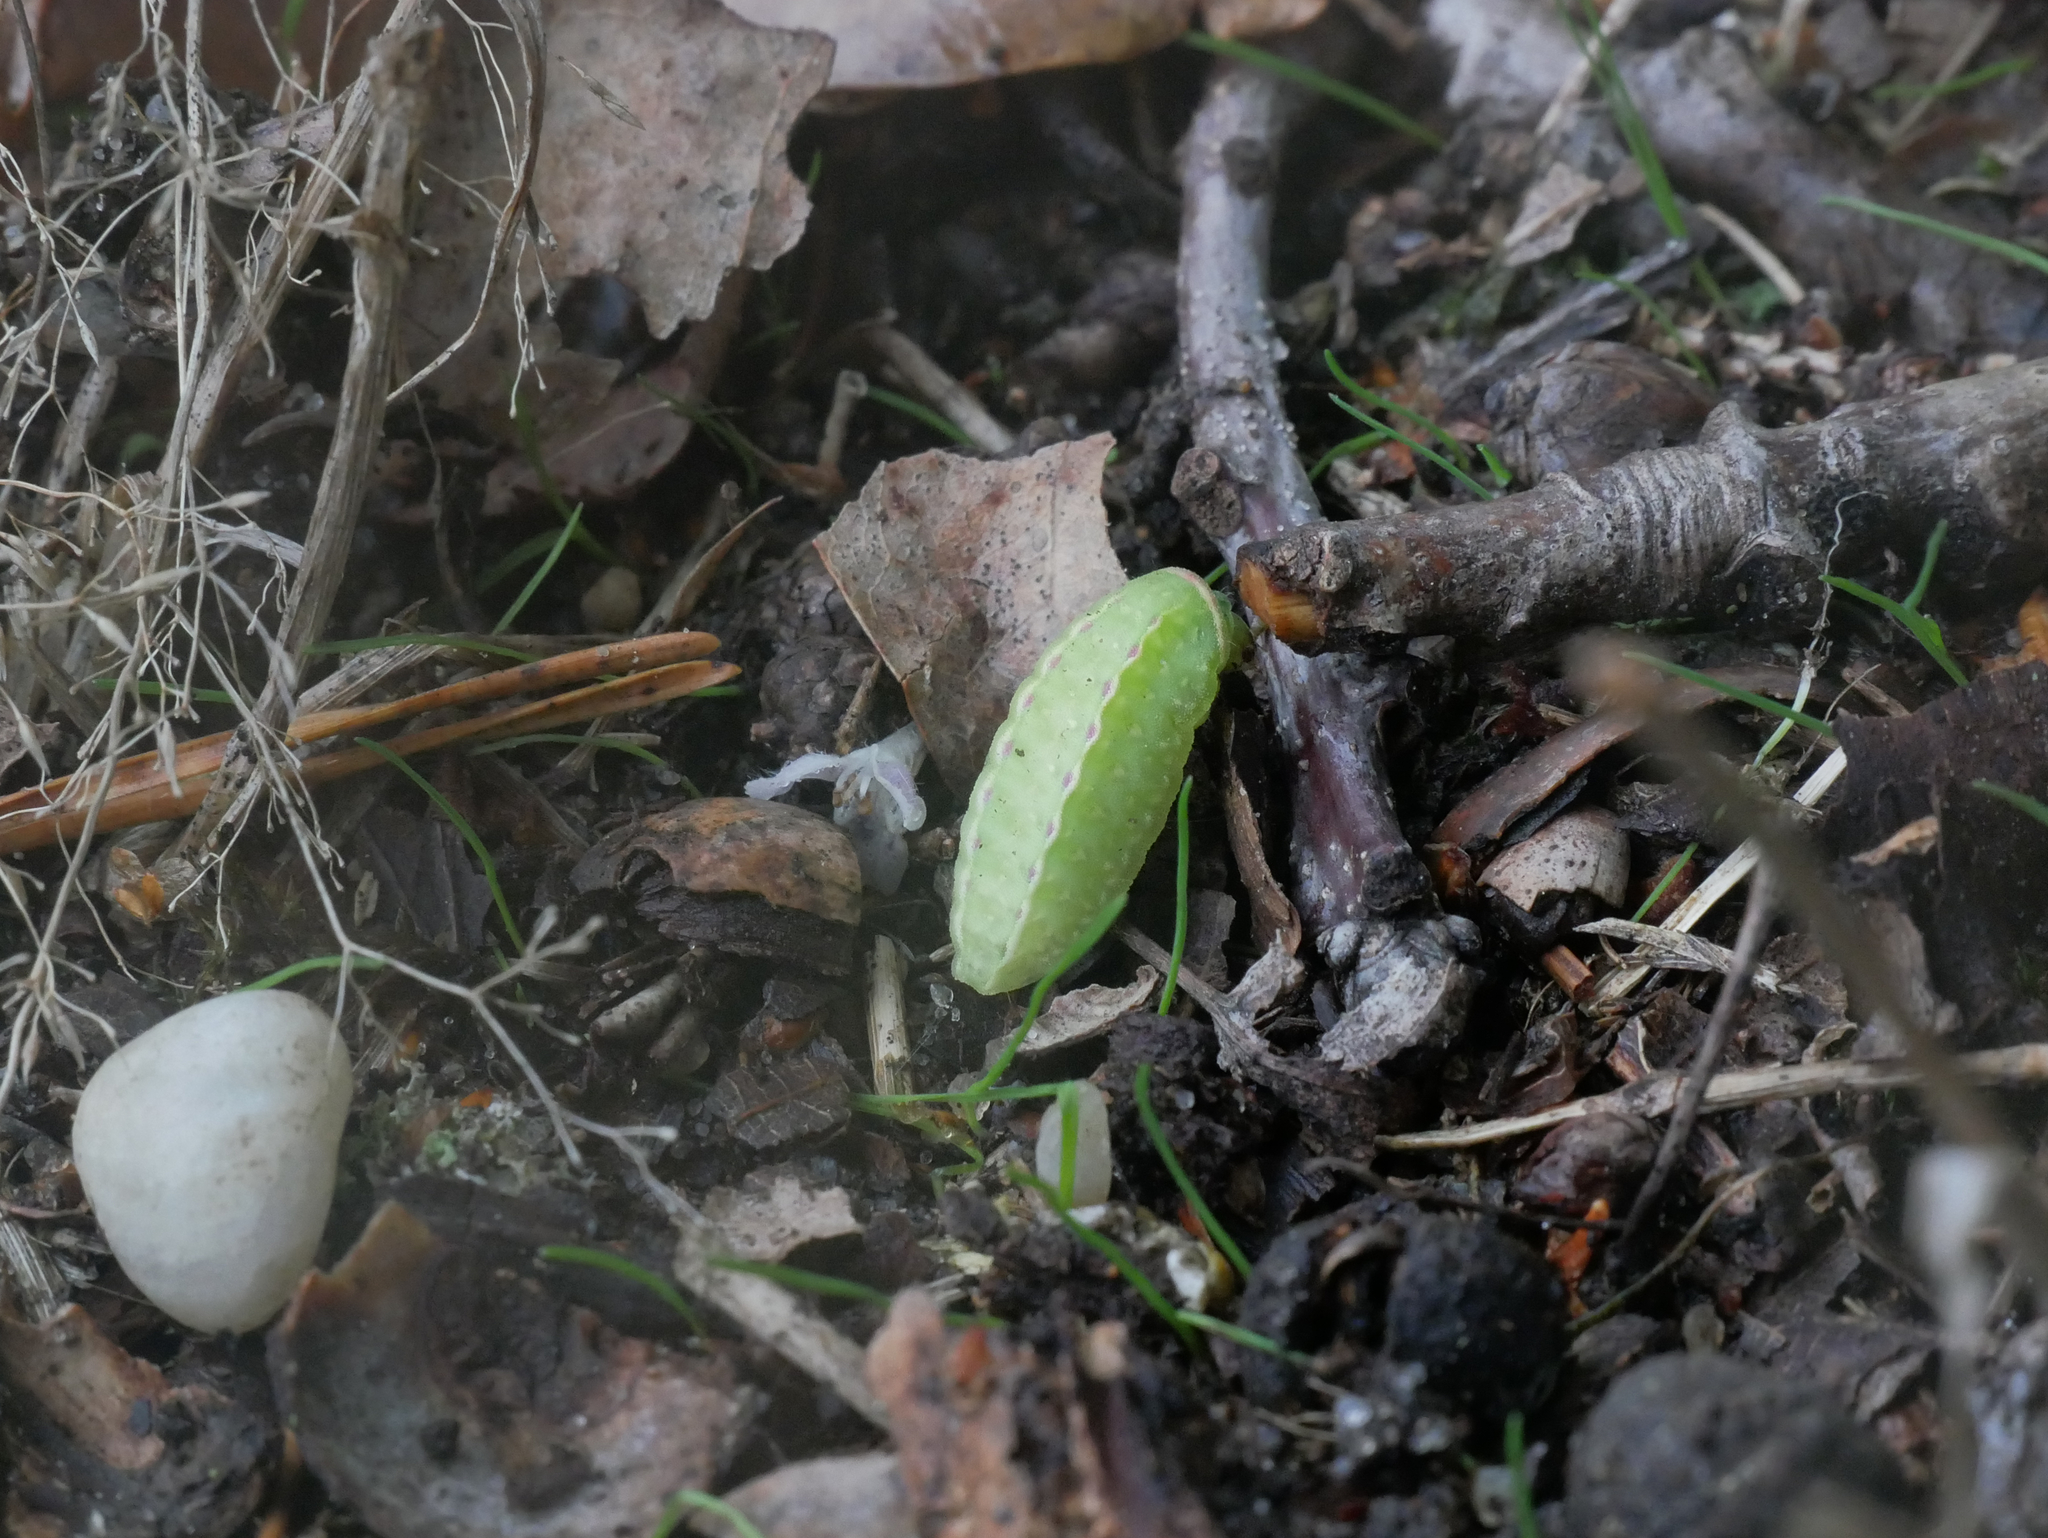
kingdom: Animalia
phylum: Arthropoda
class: Insecta
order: Lepidoptera
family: Limacodidae
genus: Apoda
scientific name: Apoda limacodes
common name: Festoon
